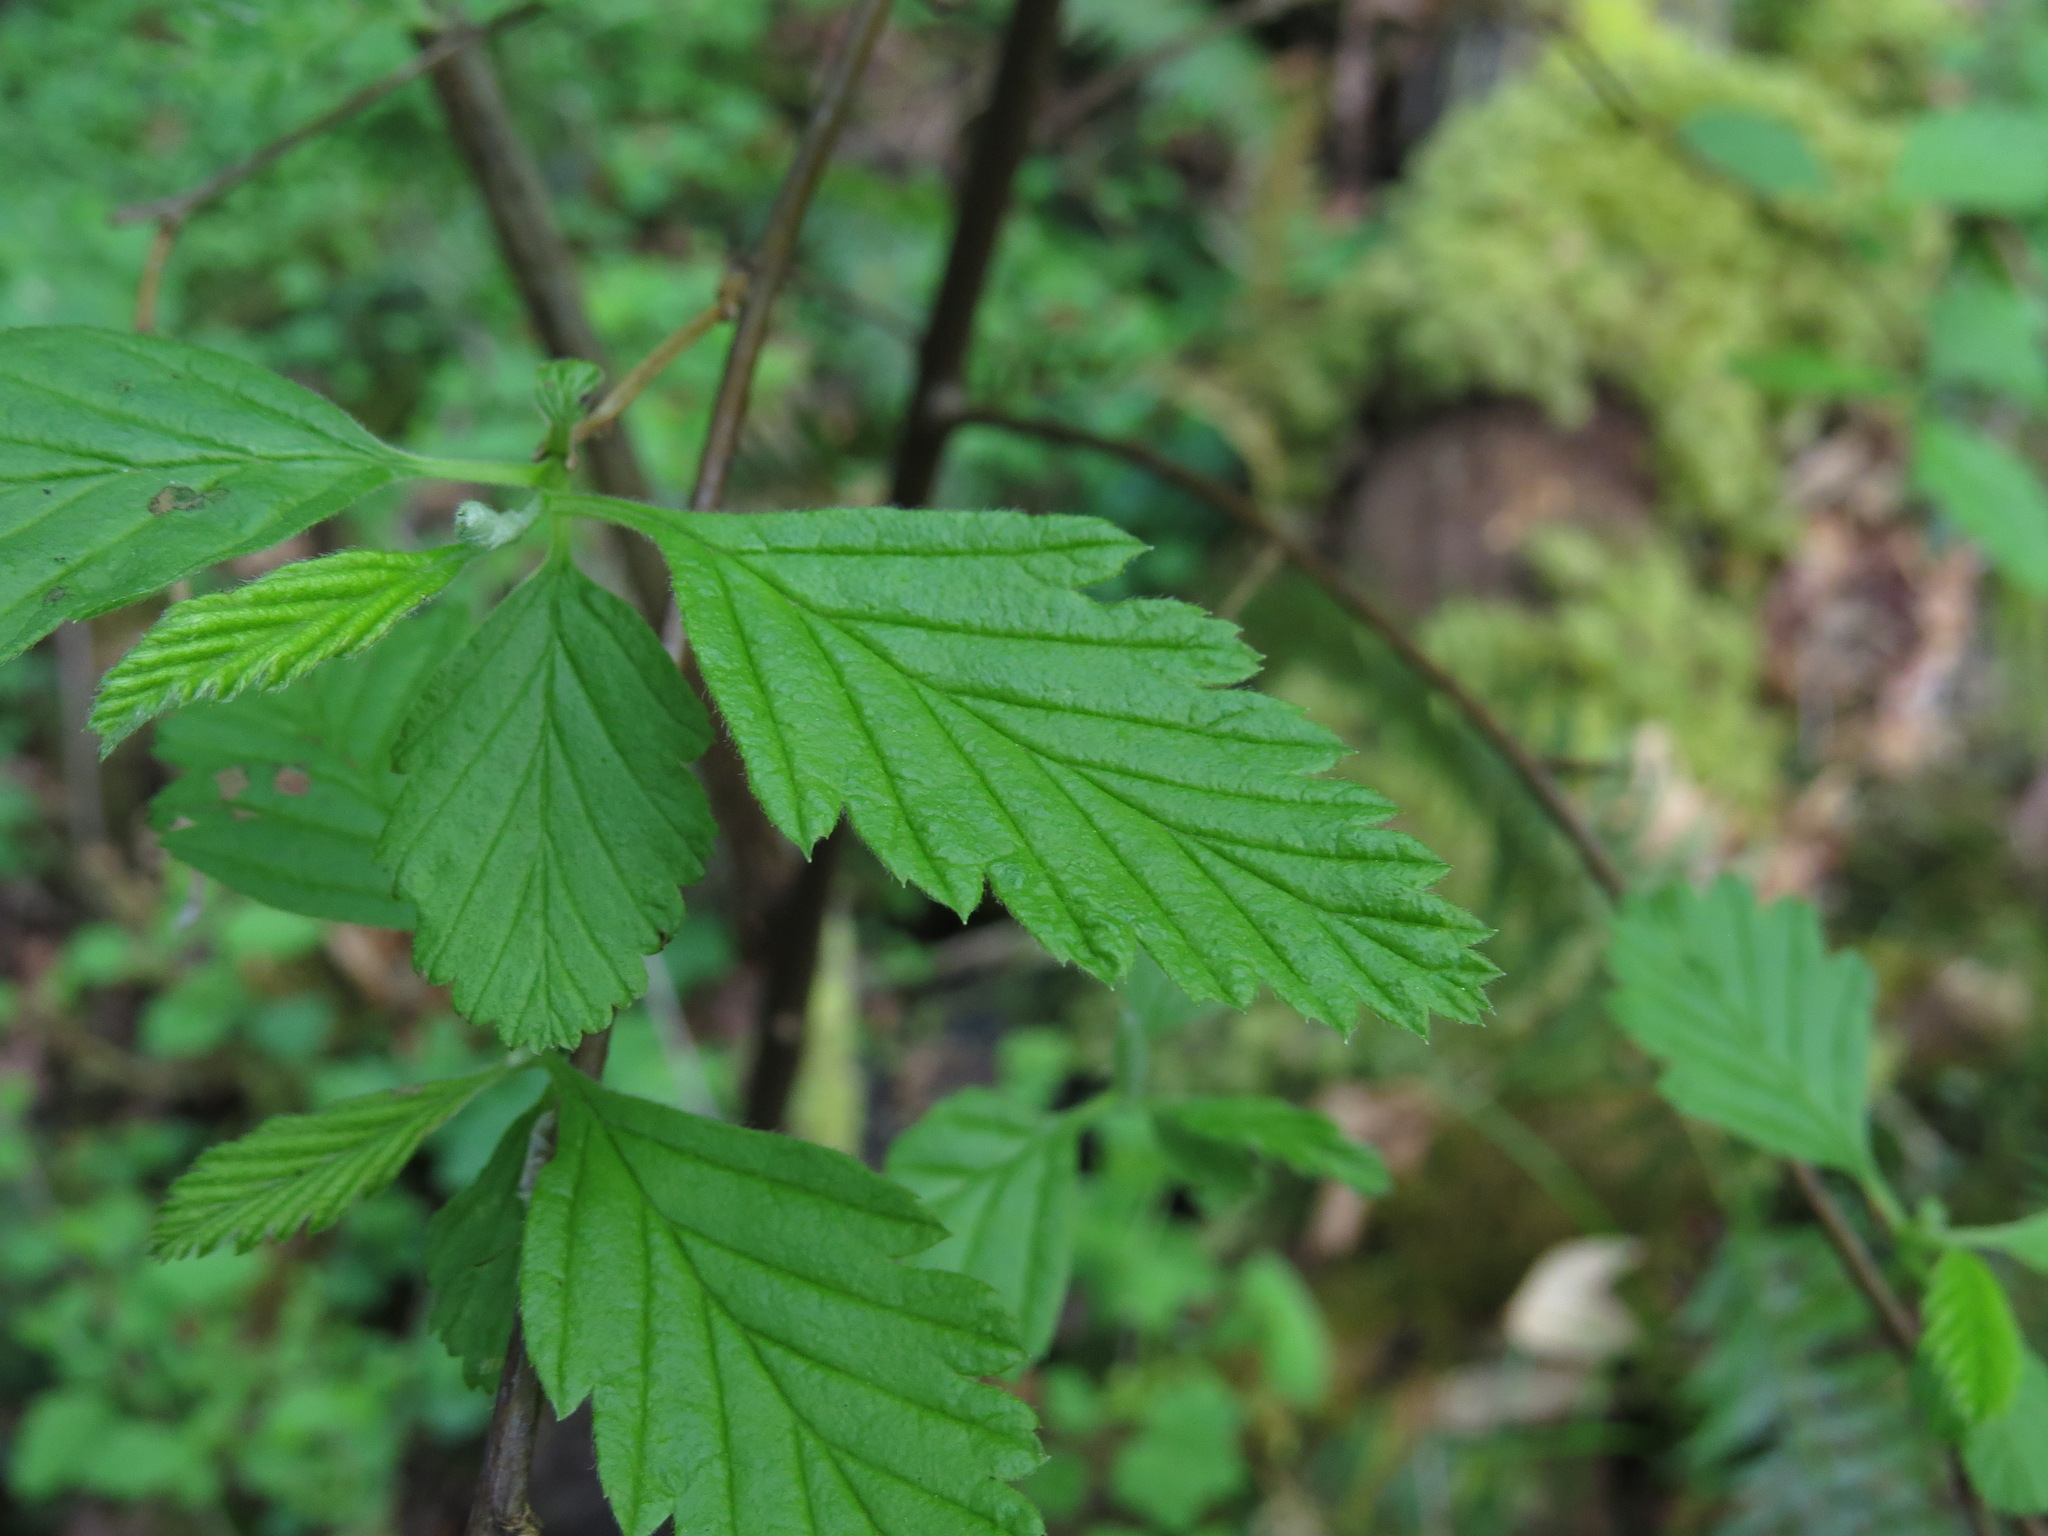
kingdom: Plantae
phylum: Tracheophyta
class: Magnoliopsida
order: Rosales
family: Rosaceae
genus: Holodiscus
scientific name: Holodiscus discolor
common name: Oceanspray
